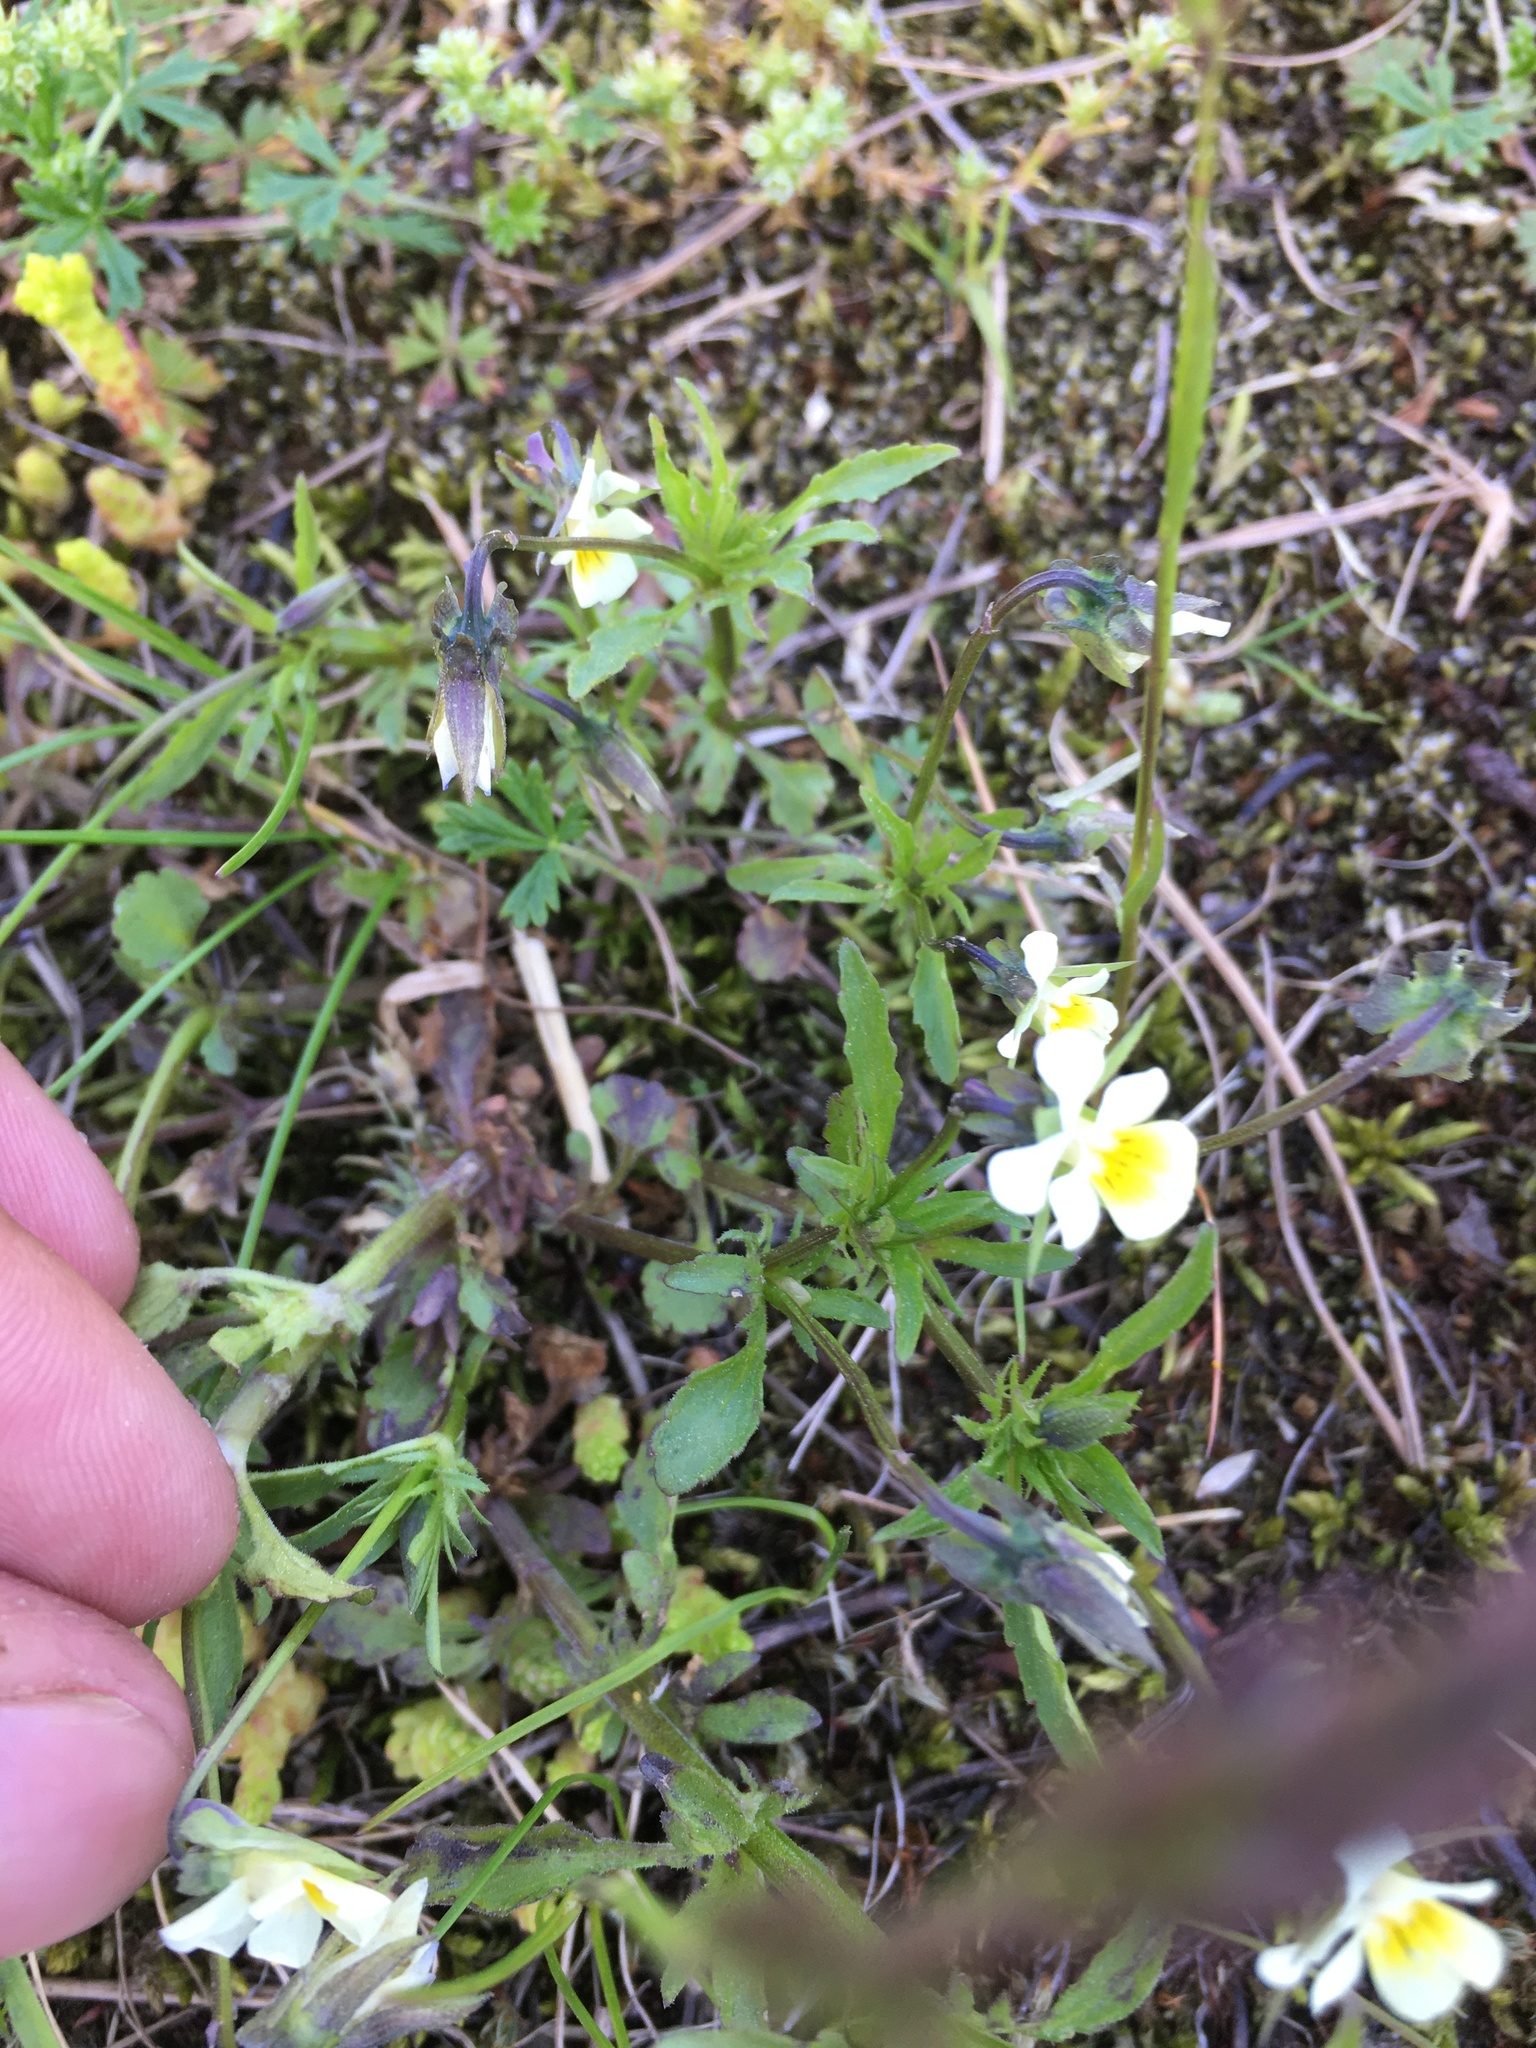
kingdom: Plantae
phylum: Tracheophyta
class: Magnoliopsida
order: Malpighiales
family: Violaceae
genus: Viola
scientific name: Viola arvensis
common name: Field pansy
